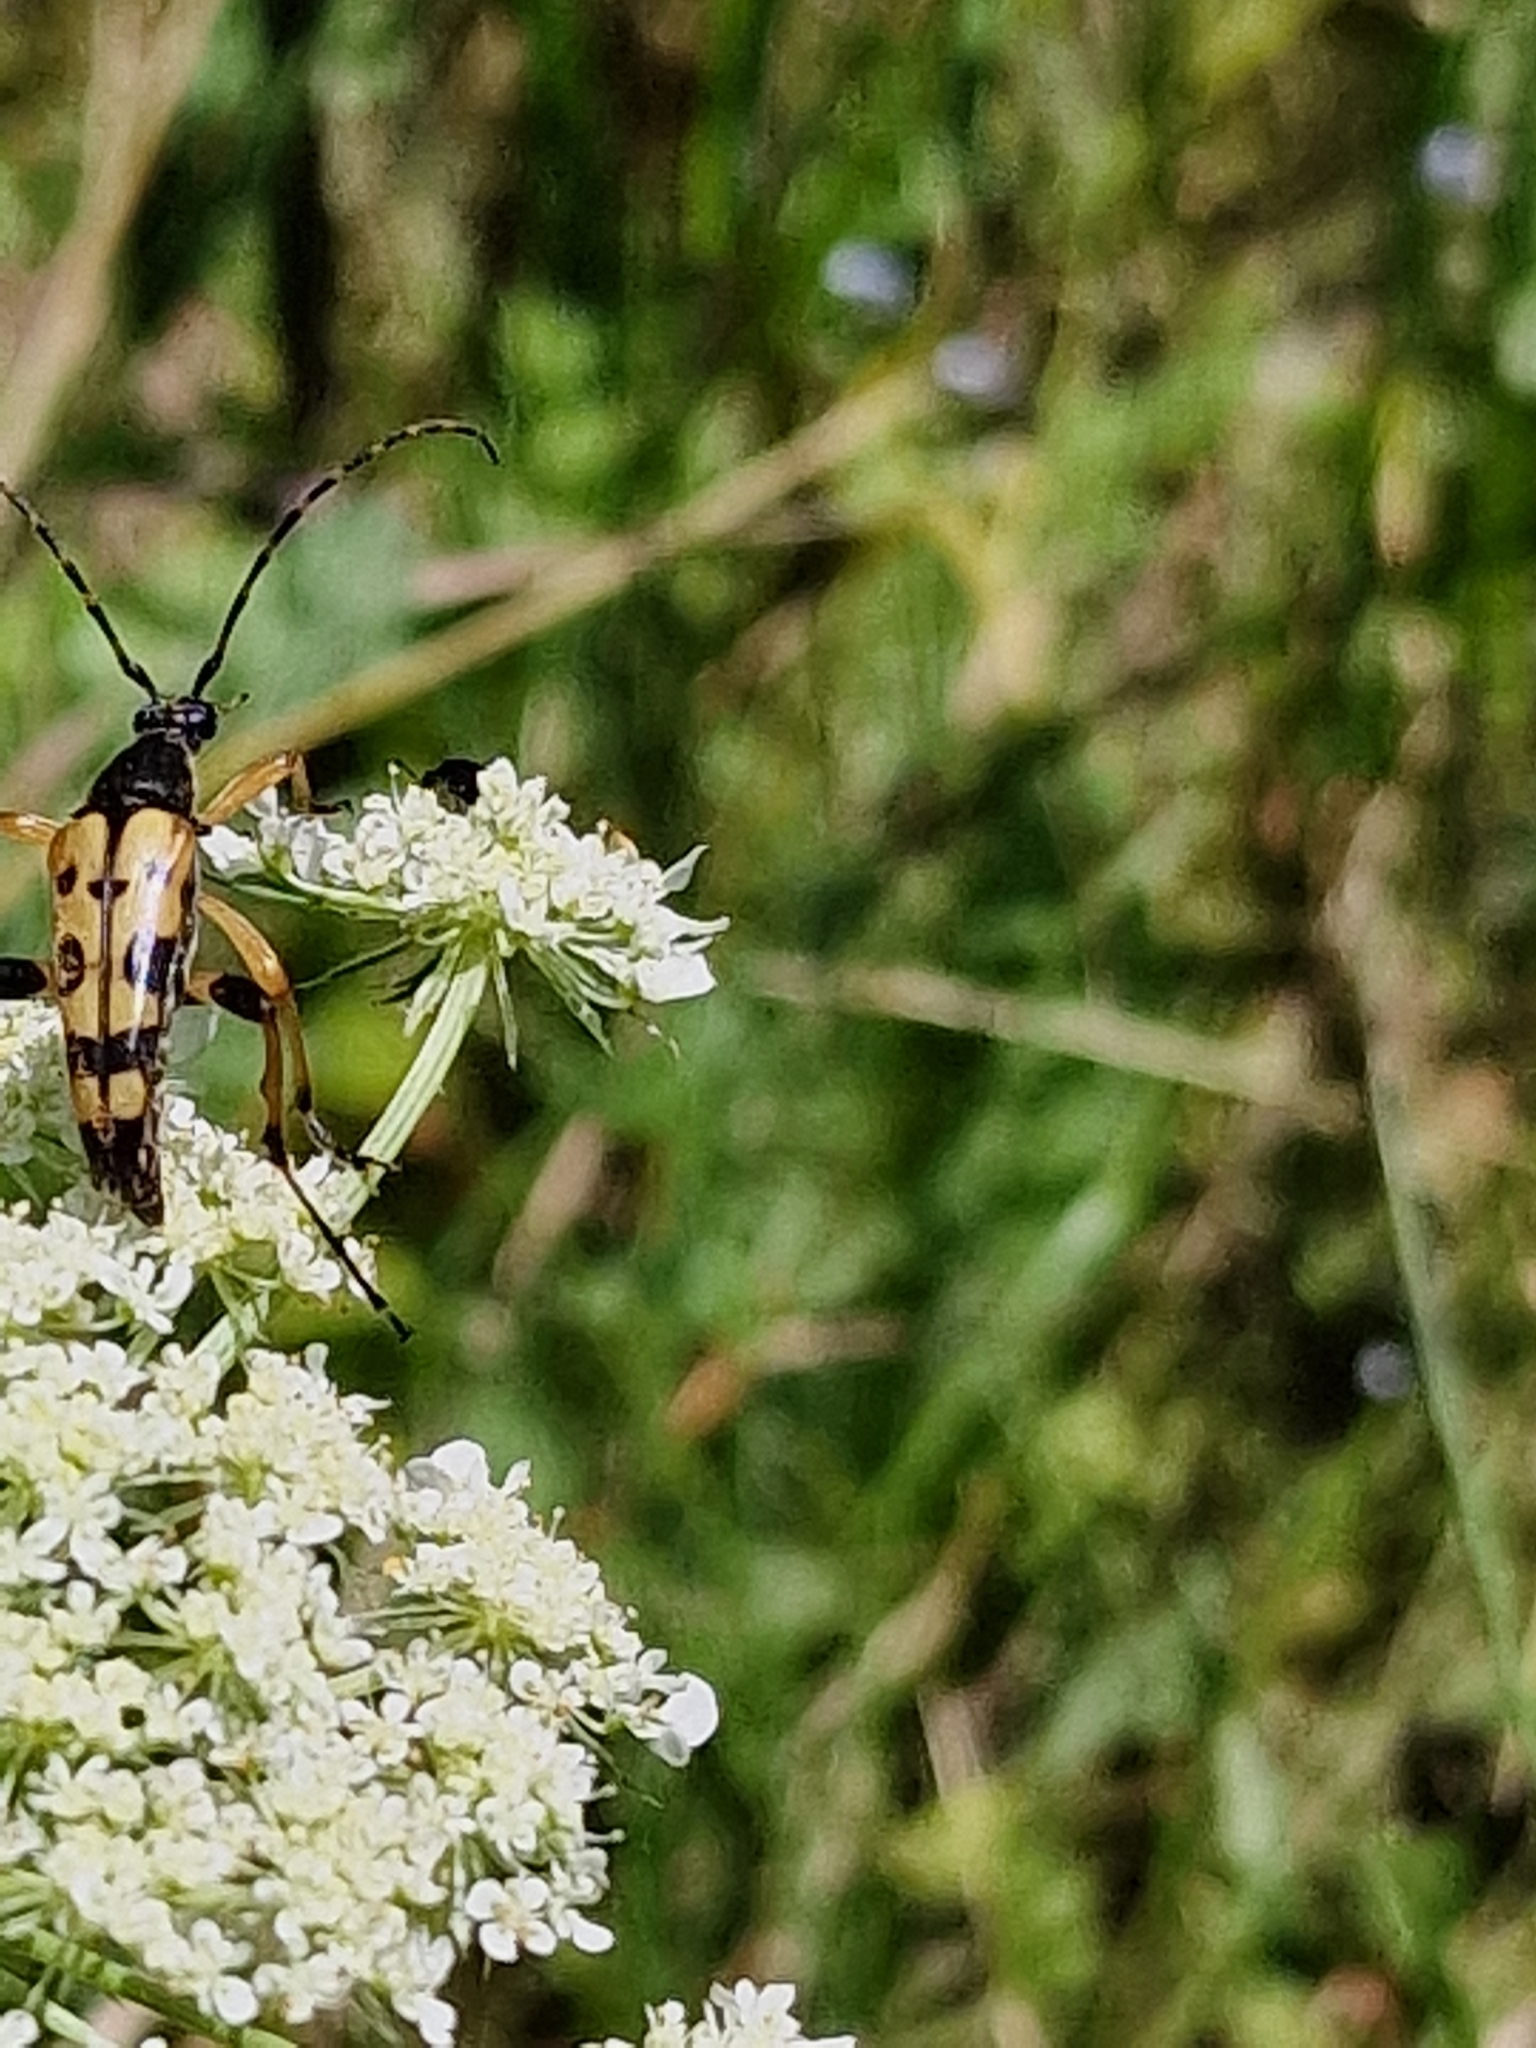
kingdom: Animalia
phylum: Arthropoda
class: Insecta
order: Coleoptera
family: Cerambycidae
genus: Rutpela
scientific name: Rutpela maculata
